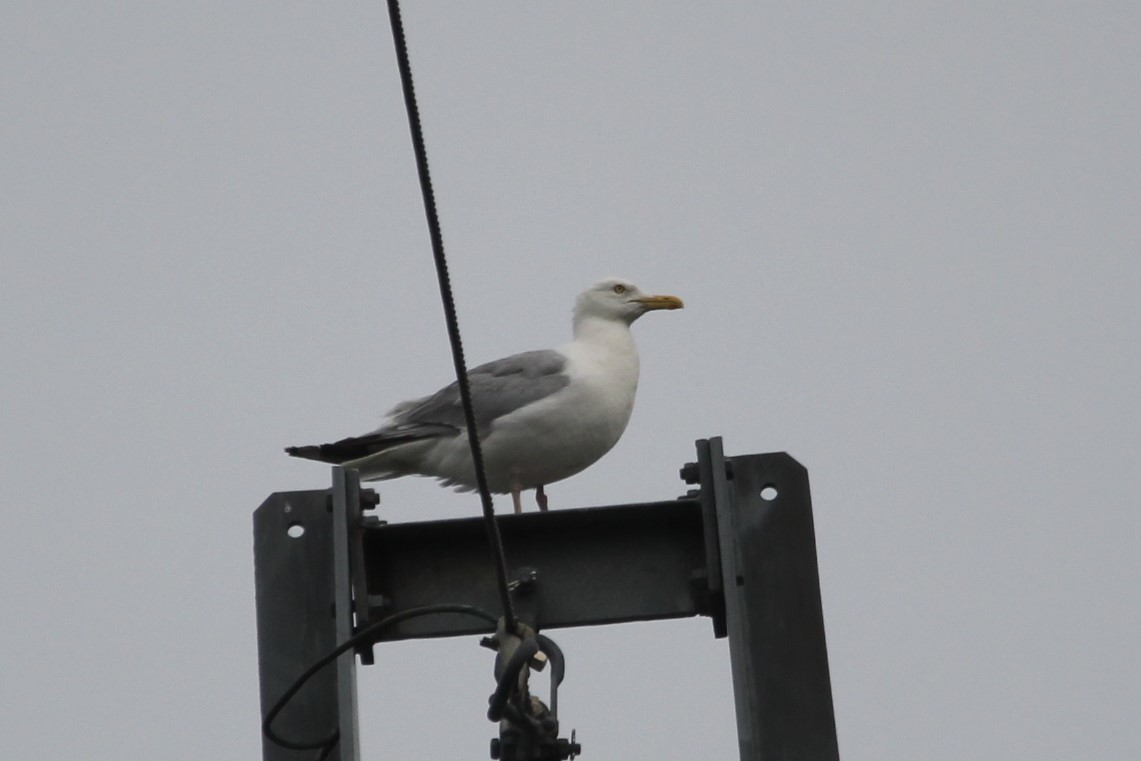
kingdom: Animalia
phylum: Chordata
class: Aves
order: Charadriiformes
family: Laridae
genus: Larus
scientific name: Larus argentatus
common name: Herring gull
